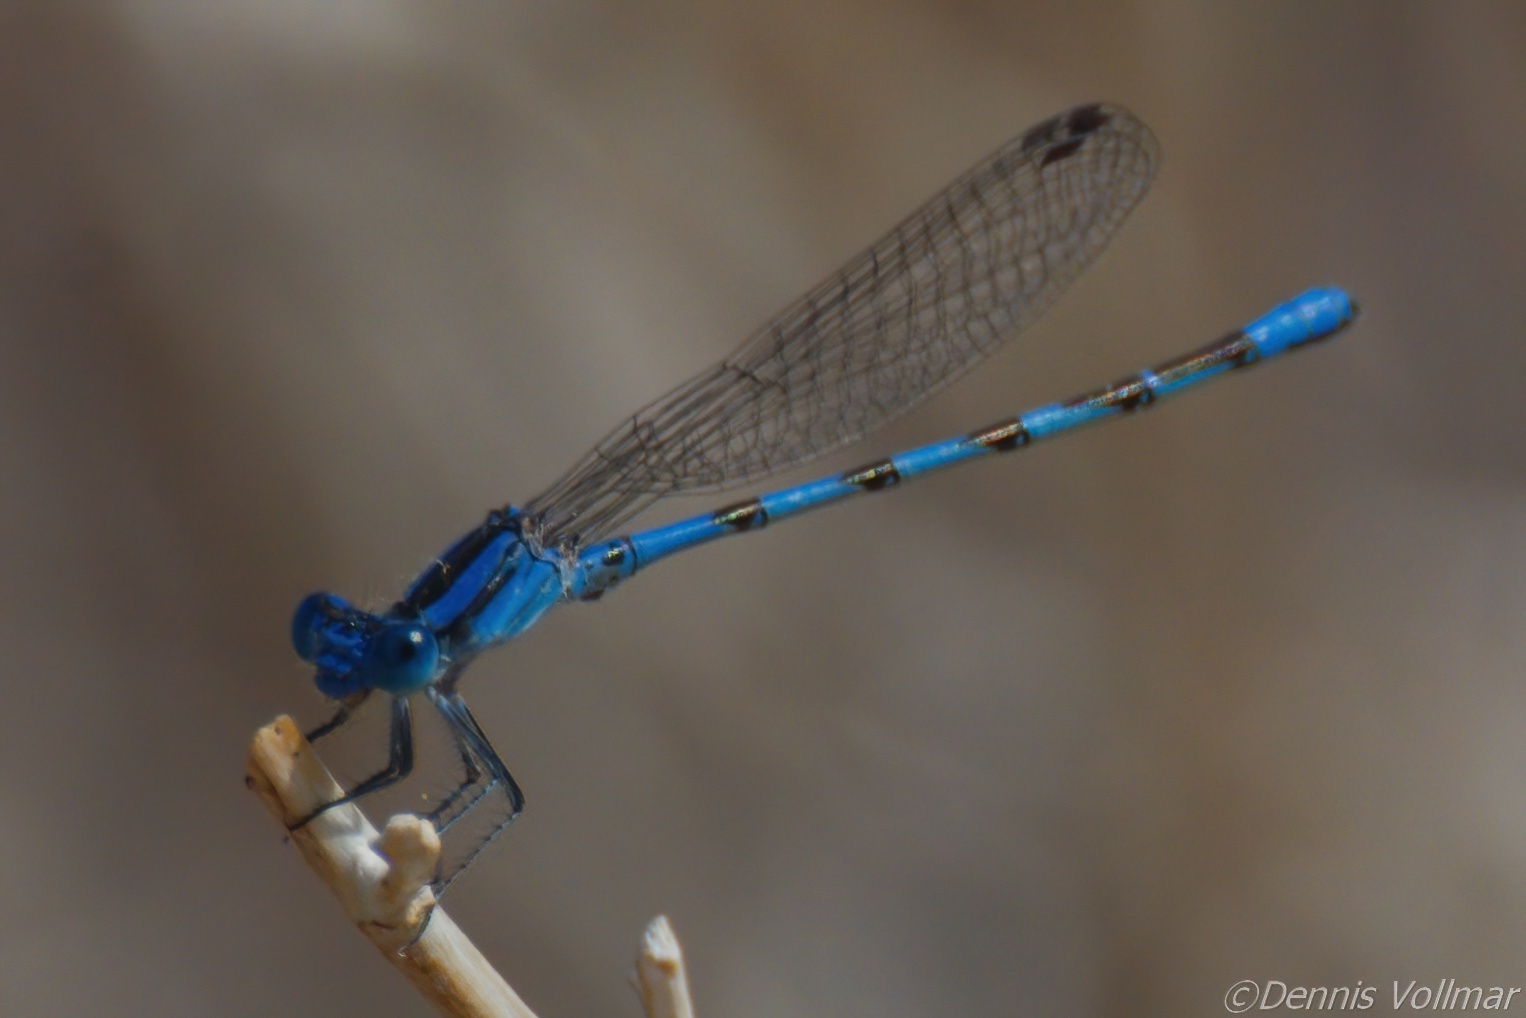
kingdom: Animalia
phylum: Arthropoda
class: Insecta
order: Odonata
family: Coenagrionidae
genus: Argia
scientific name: Argia leonorae
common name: Leonora's dancer
